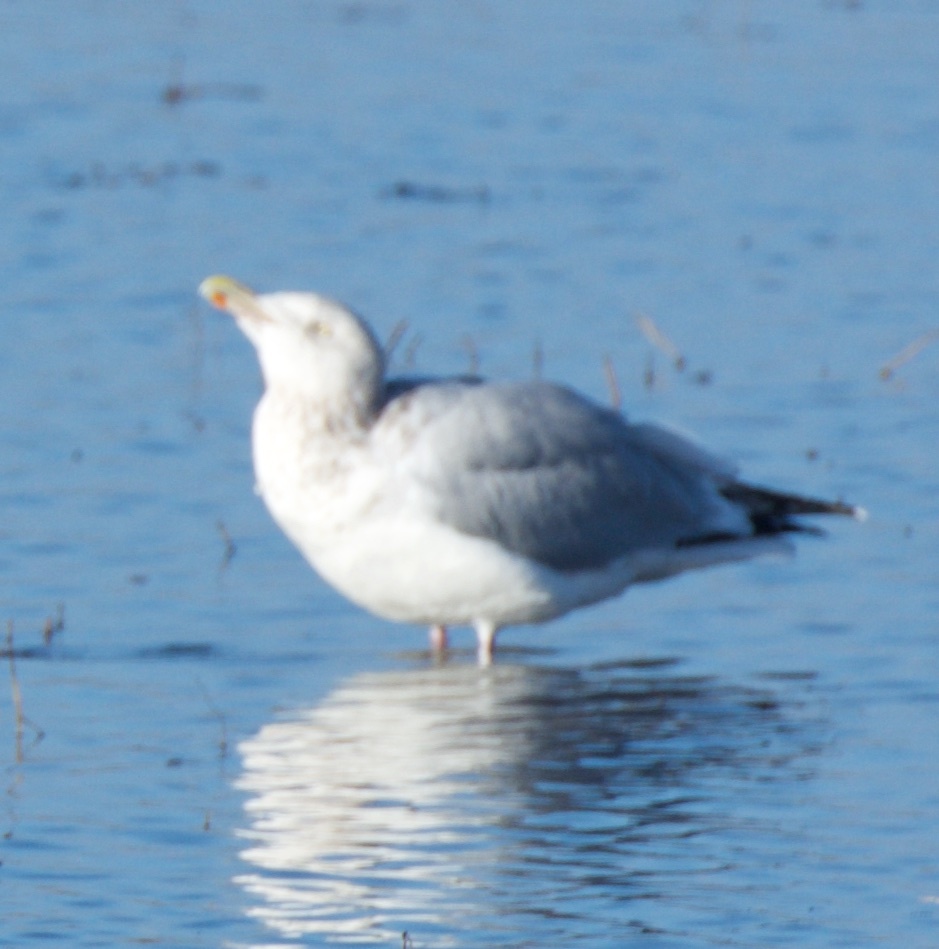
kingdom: Animalia
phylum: Chordata
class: Aves
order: Charadriiformes
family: Laridae
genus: Larus
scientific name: Larus argentatus
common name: Herring gull
